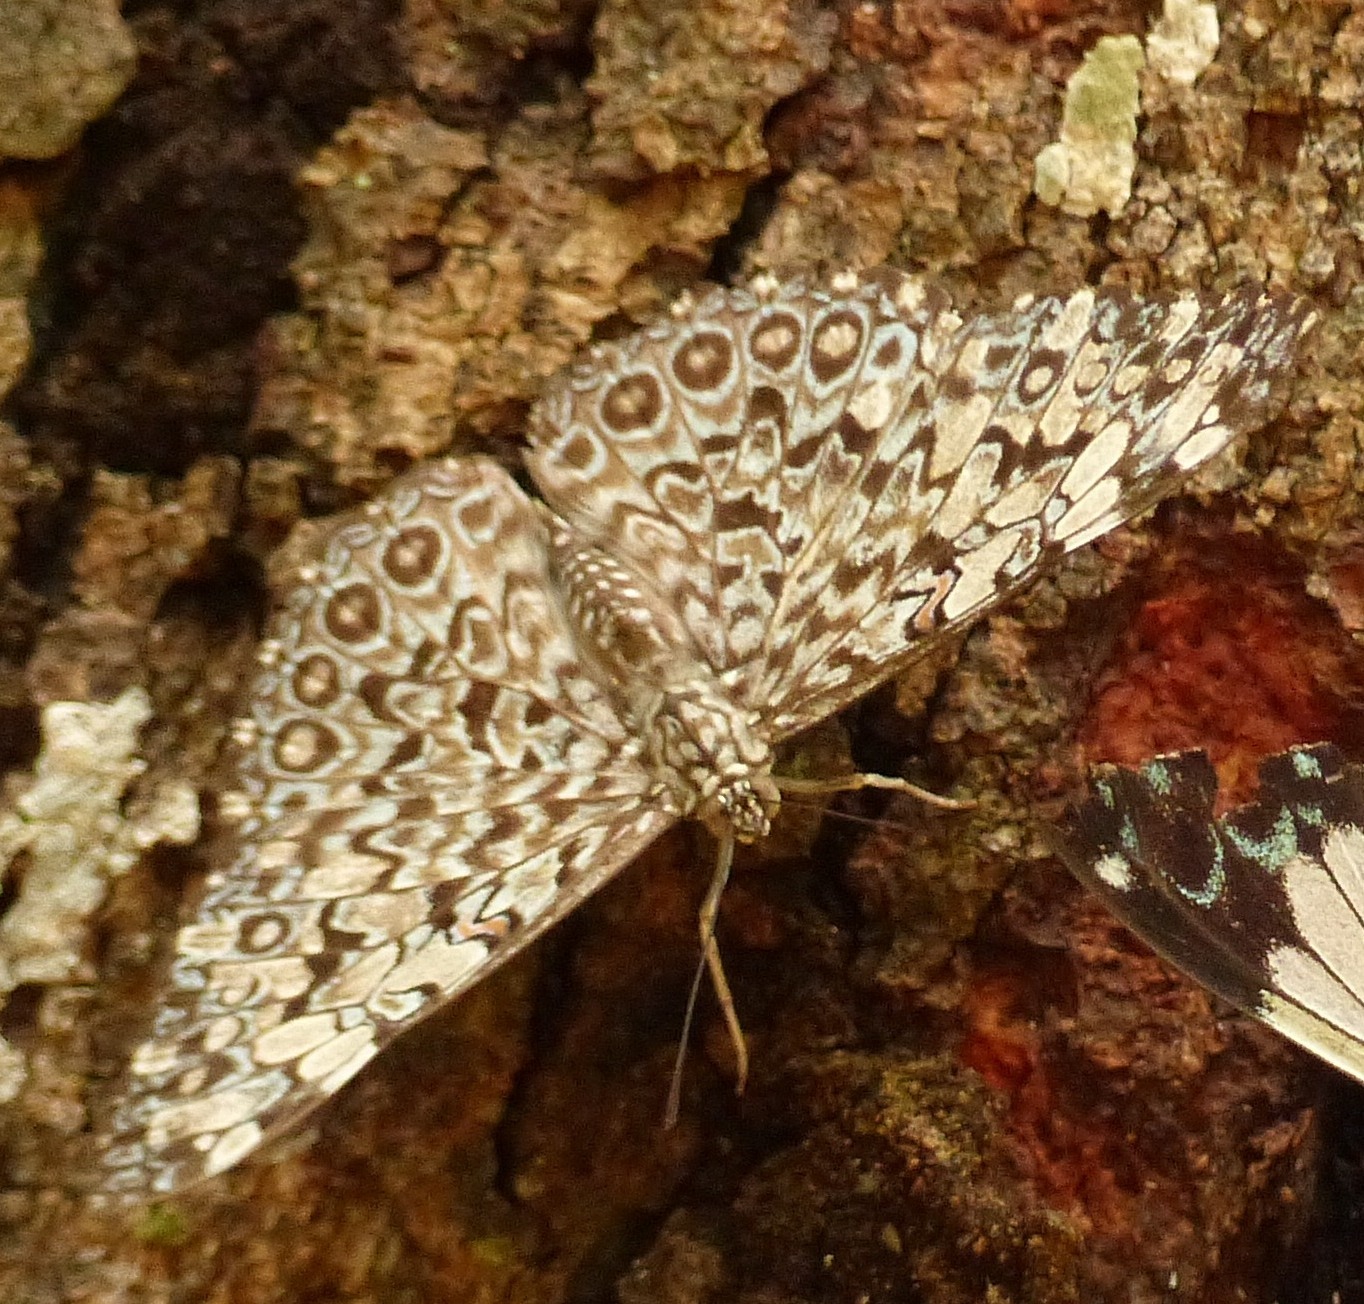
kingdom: Animalia
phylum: Arthropoda
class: Insecta
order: Lepidoptera
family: Nymphalidae
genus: Hamadryas
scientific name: Hamadryas feronia
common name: Variable cracker
